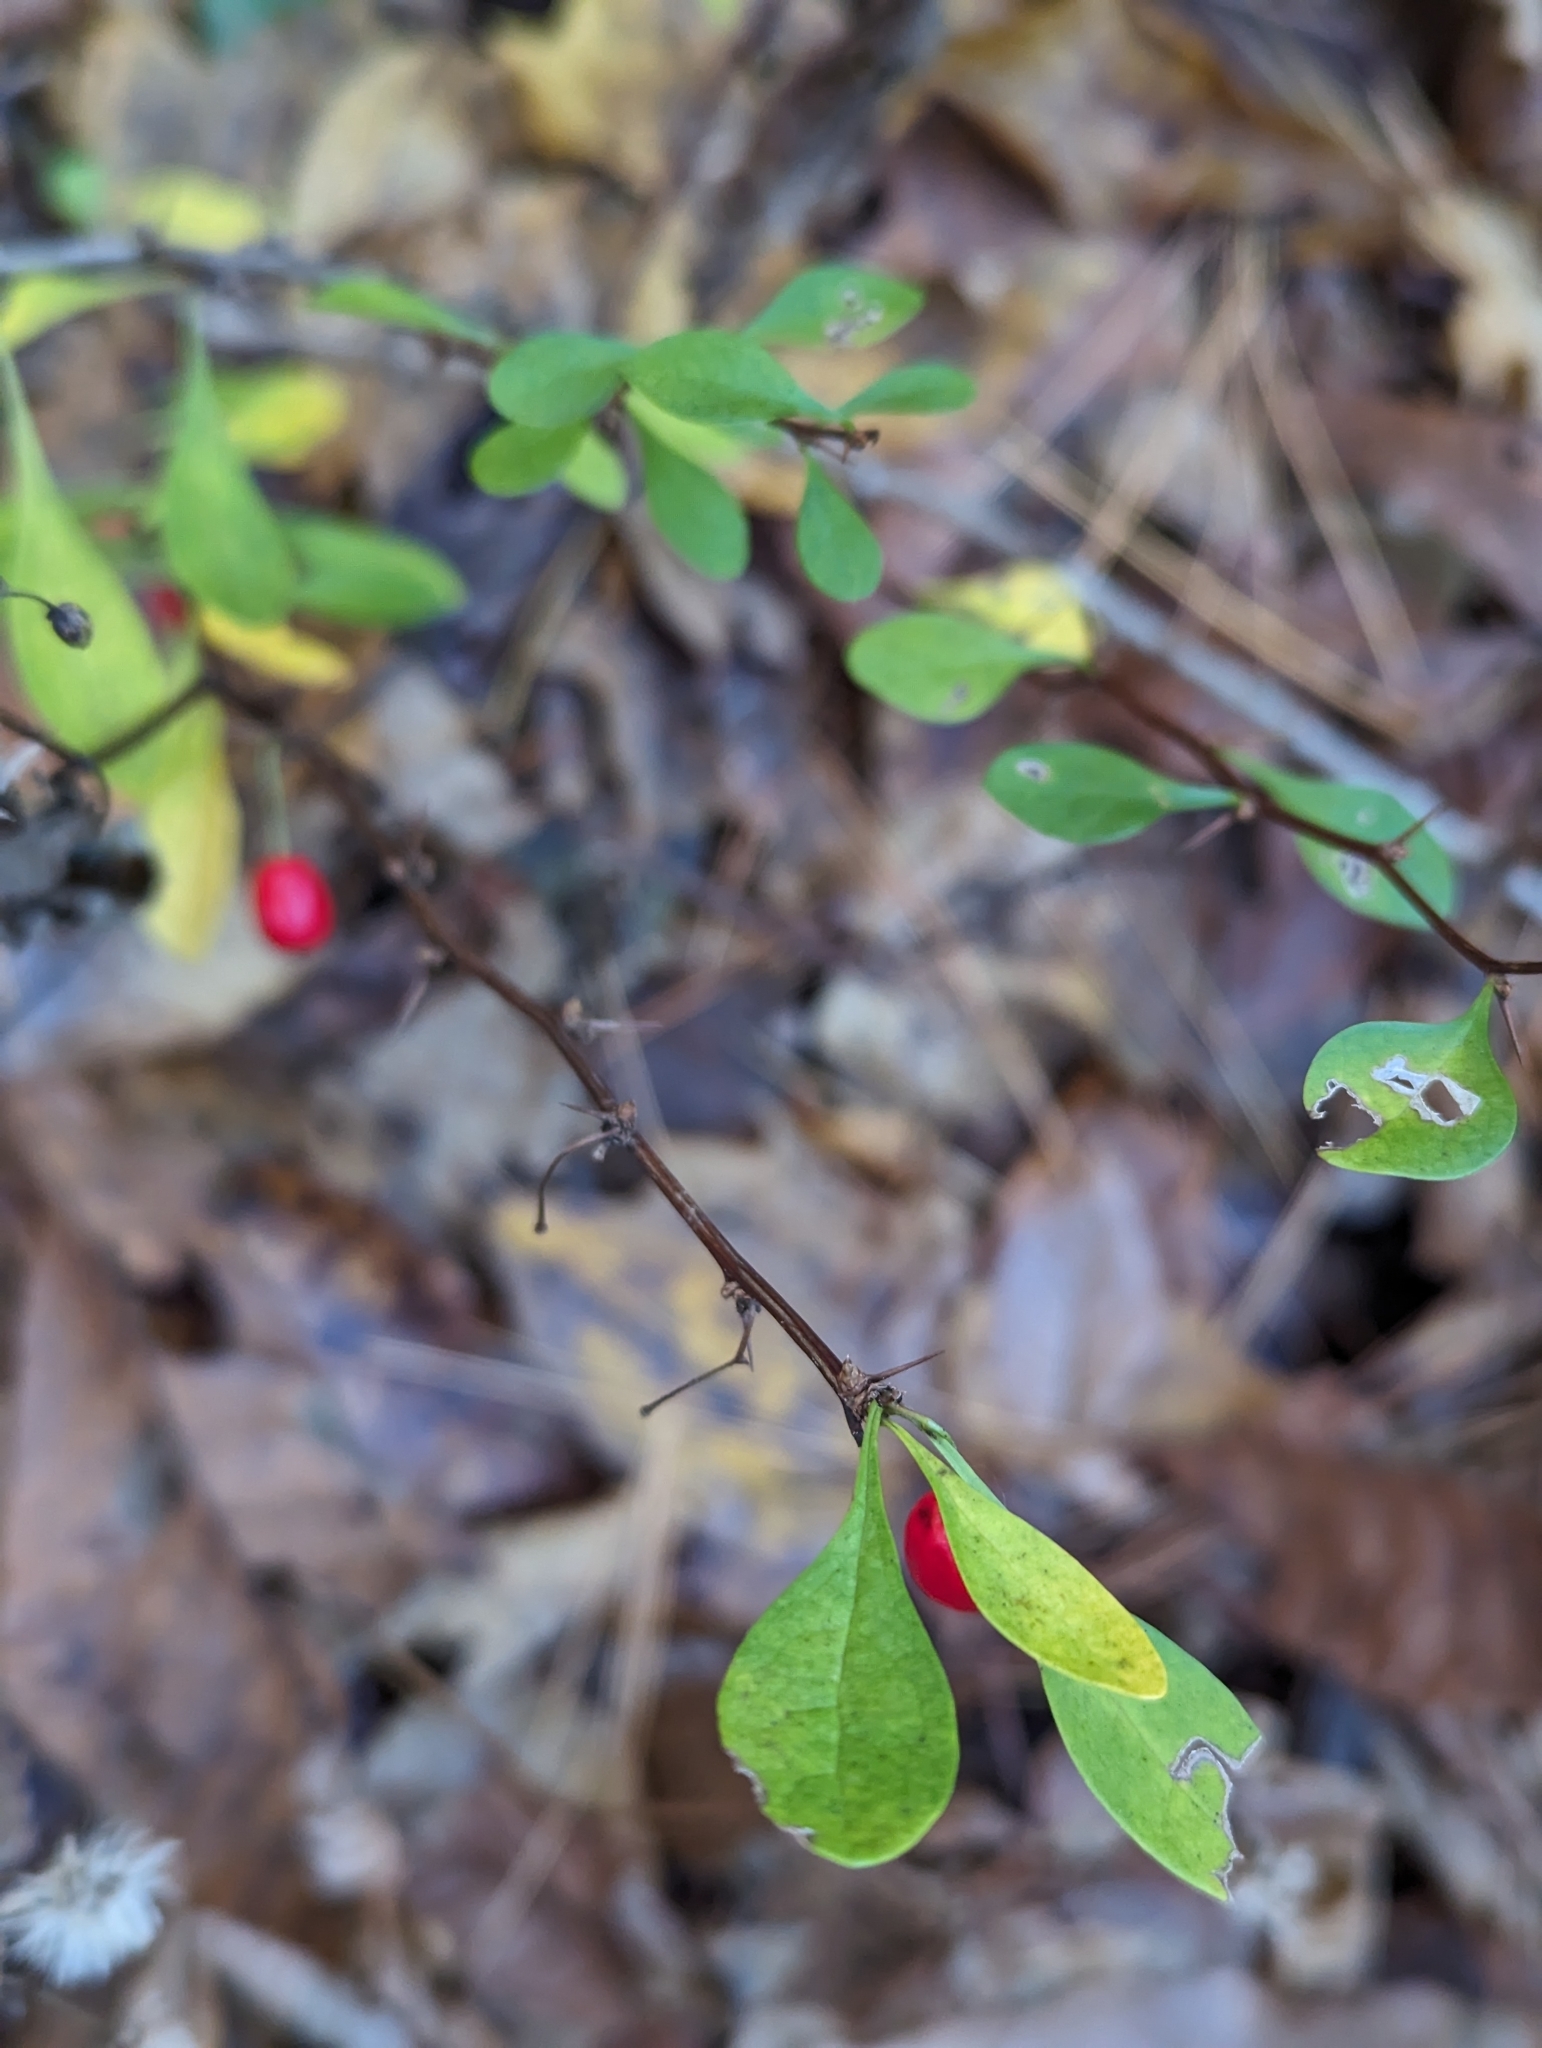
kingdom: Plantae
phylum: Tracheophyta
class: Magnoliopsida
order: Ranunculales
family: Berberidaceae
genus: Berberis
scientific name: Berberis thunbergii
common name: Japanese barberry
